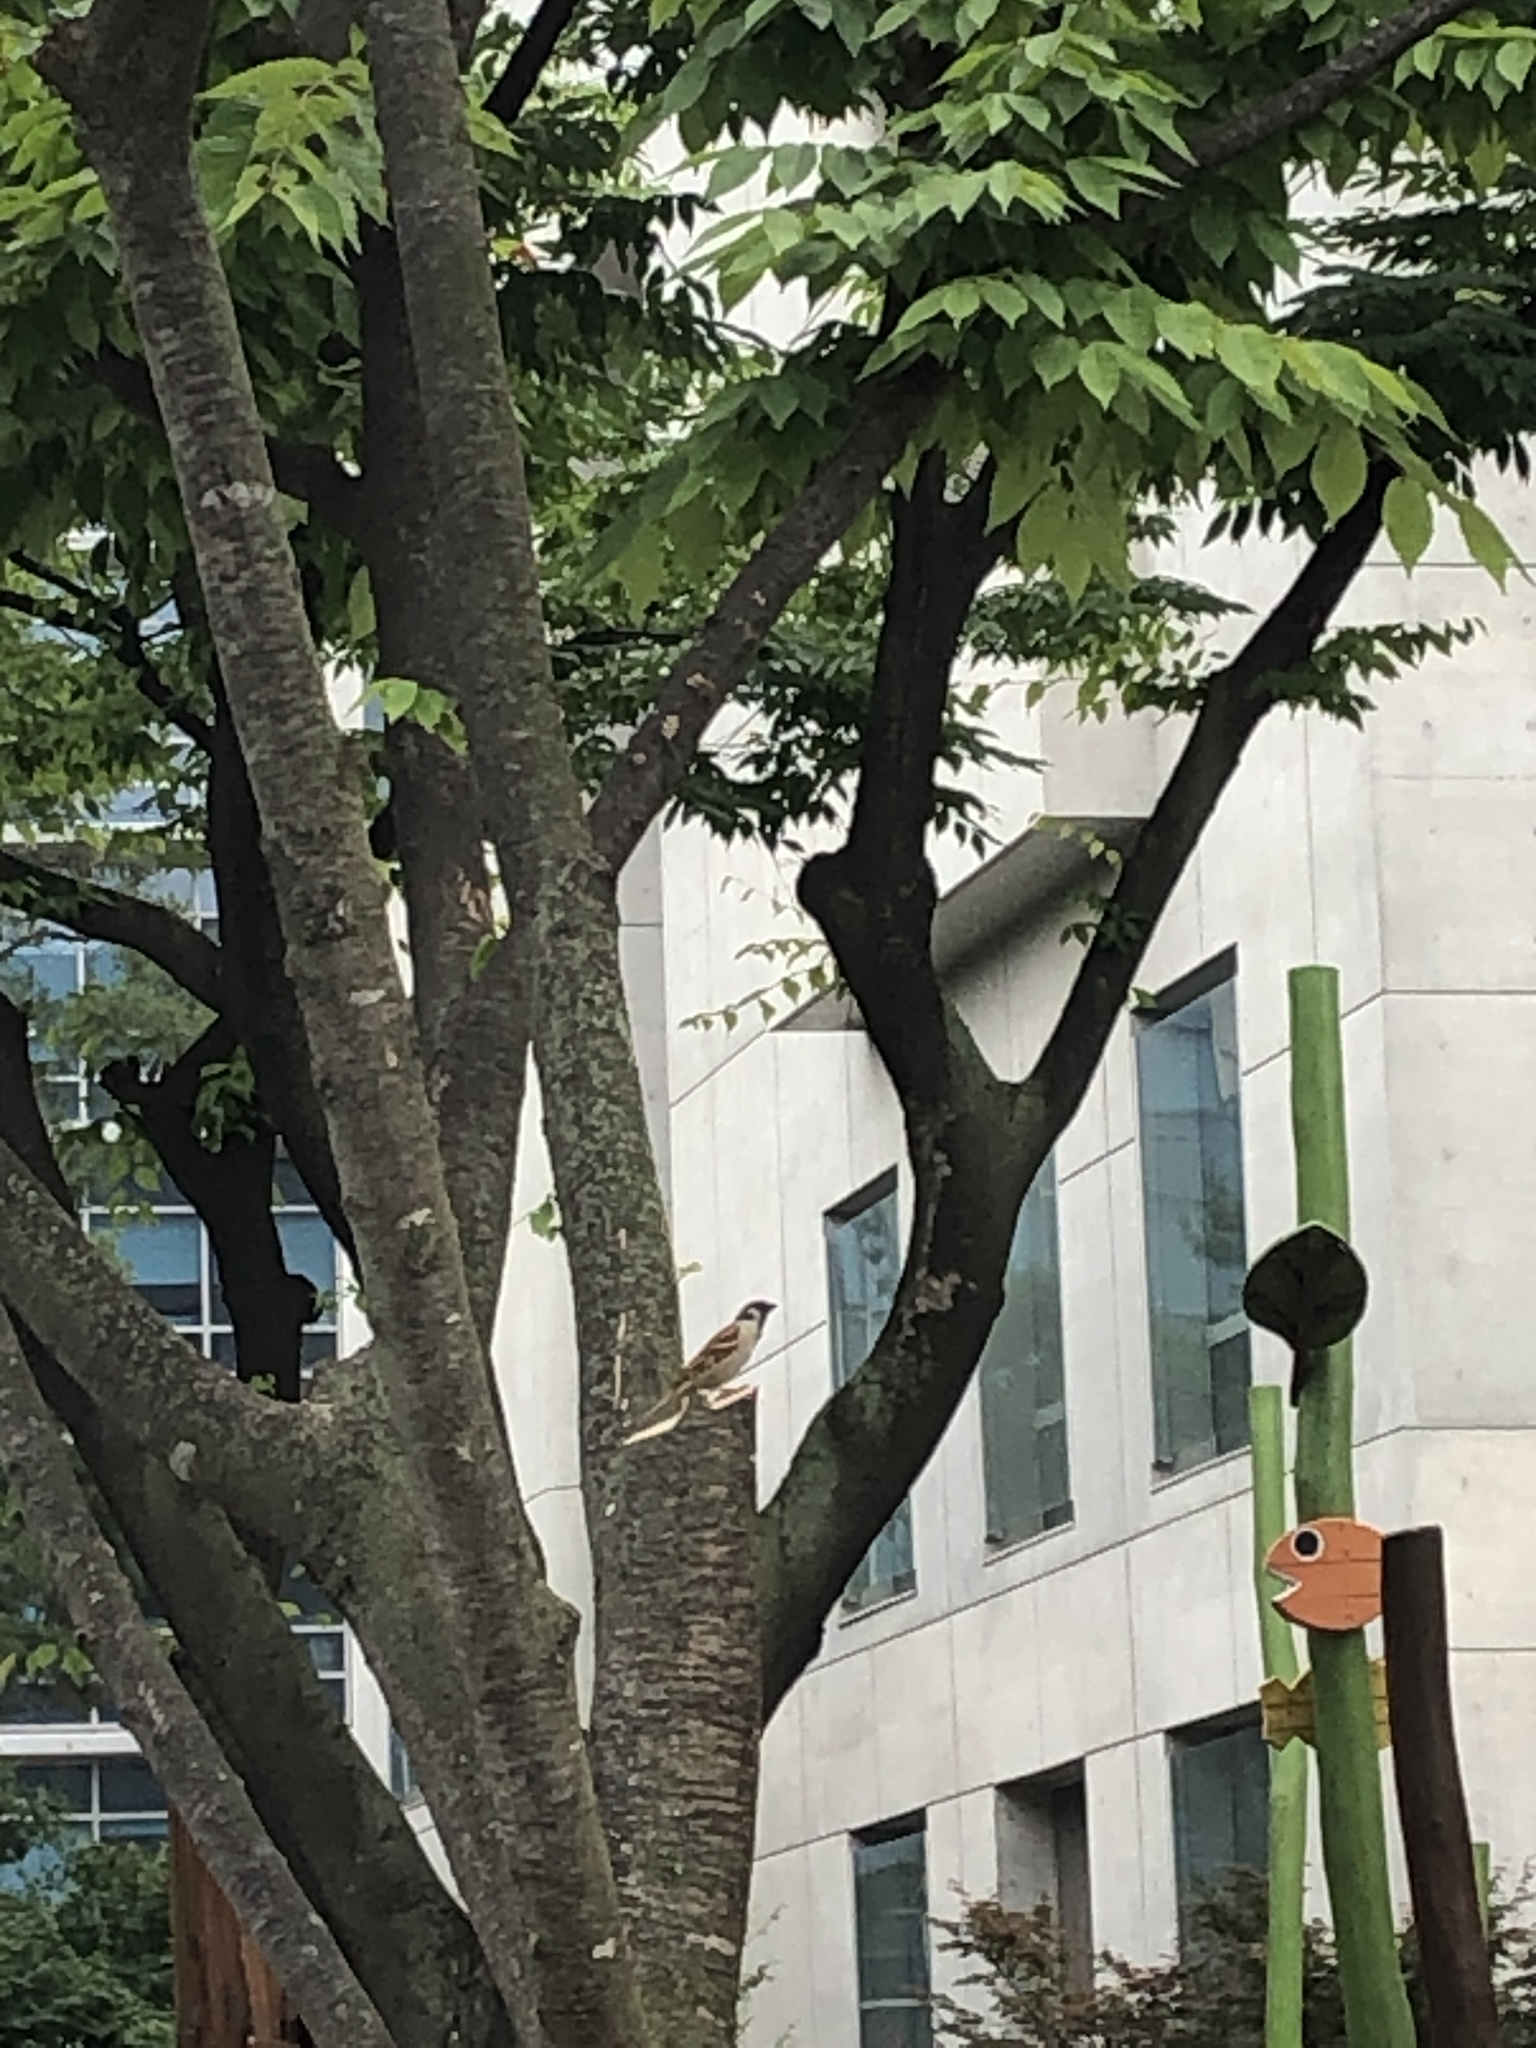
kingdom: Animalia
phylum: Chordata
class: Aves
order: Passeriformes
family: Passeridae
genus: Passer
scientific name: Passer montanus
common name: Eurasian tree sparrow
